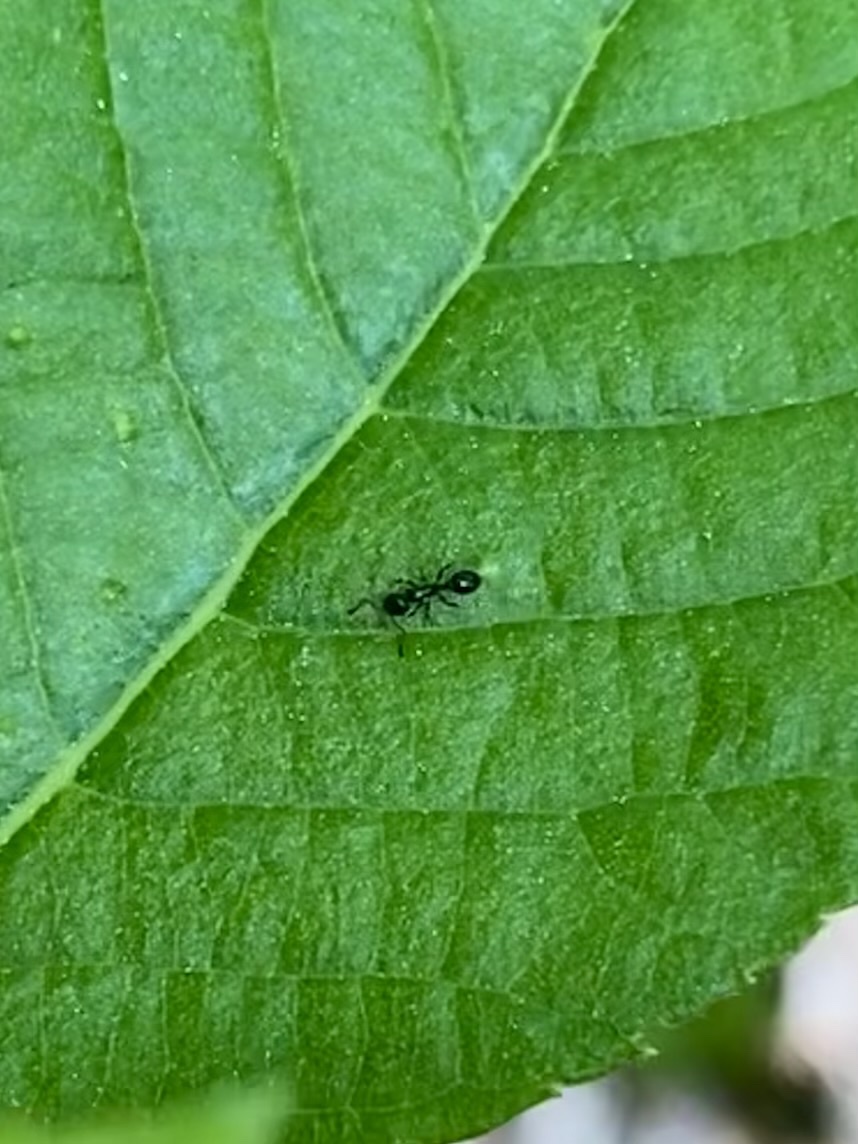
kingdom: Animalia
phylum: Arthropoda
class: Insecta
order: Hymenoptera
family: Formicidae
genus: Temnothorax
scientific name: Temnothorax longispinosus
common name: Long-spined acorn ant
